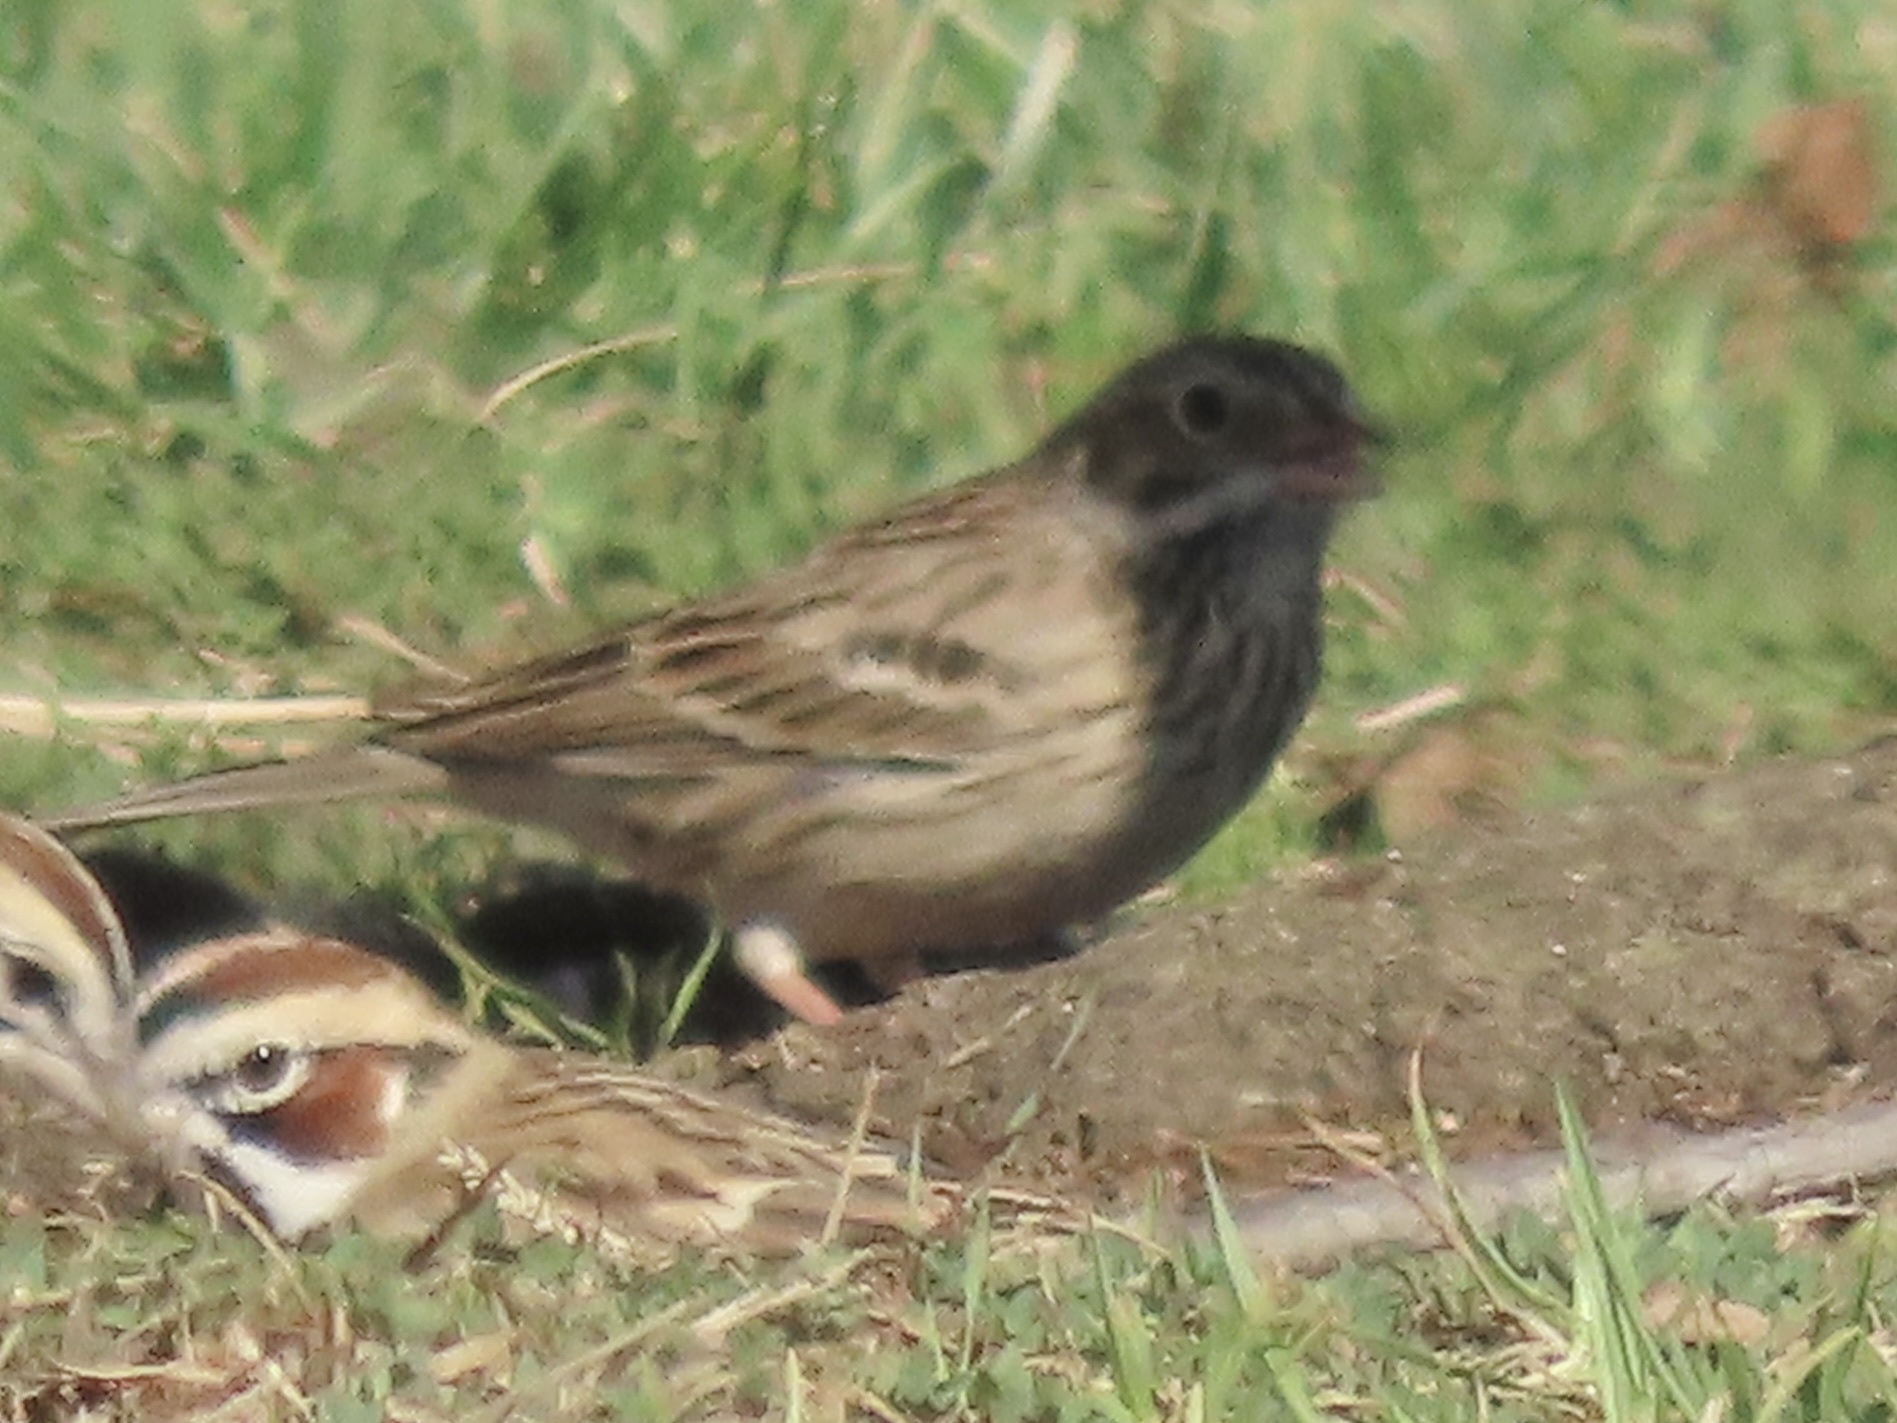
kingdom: Animalia
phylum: Chordata
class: Aves
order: Passeriformes
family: Passerellidae
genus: Pooecetes
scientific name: Pooecetes gramineus
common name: Vesper sparrow
